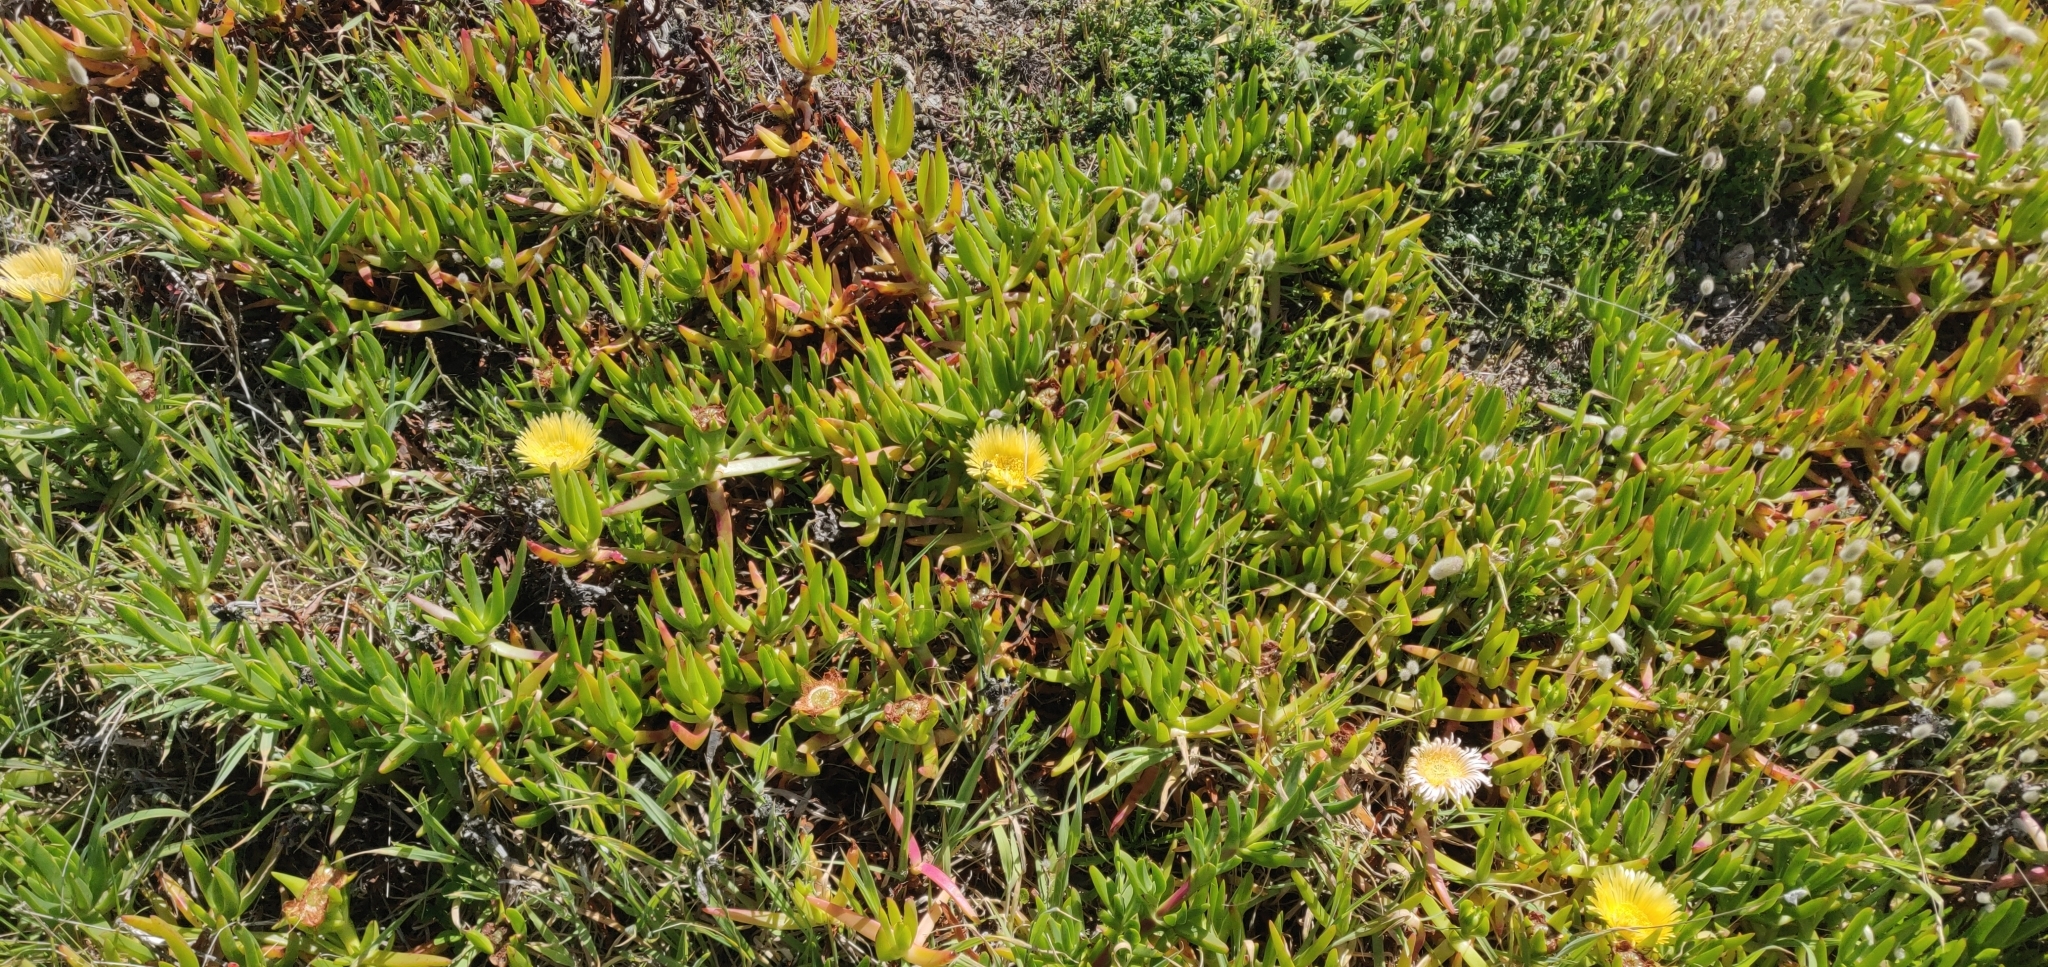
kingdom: Plantae
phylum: Tracheophyta
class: Magnoliopsida
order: Caryophyllales
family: Aizoaceae
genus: Carpobrotus
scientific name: Carpobrotus edulis
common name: Hottentot-fig
